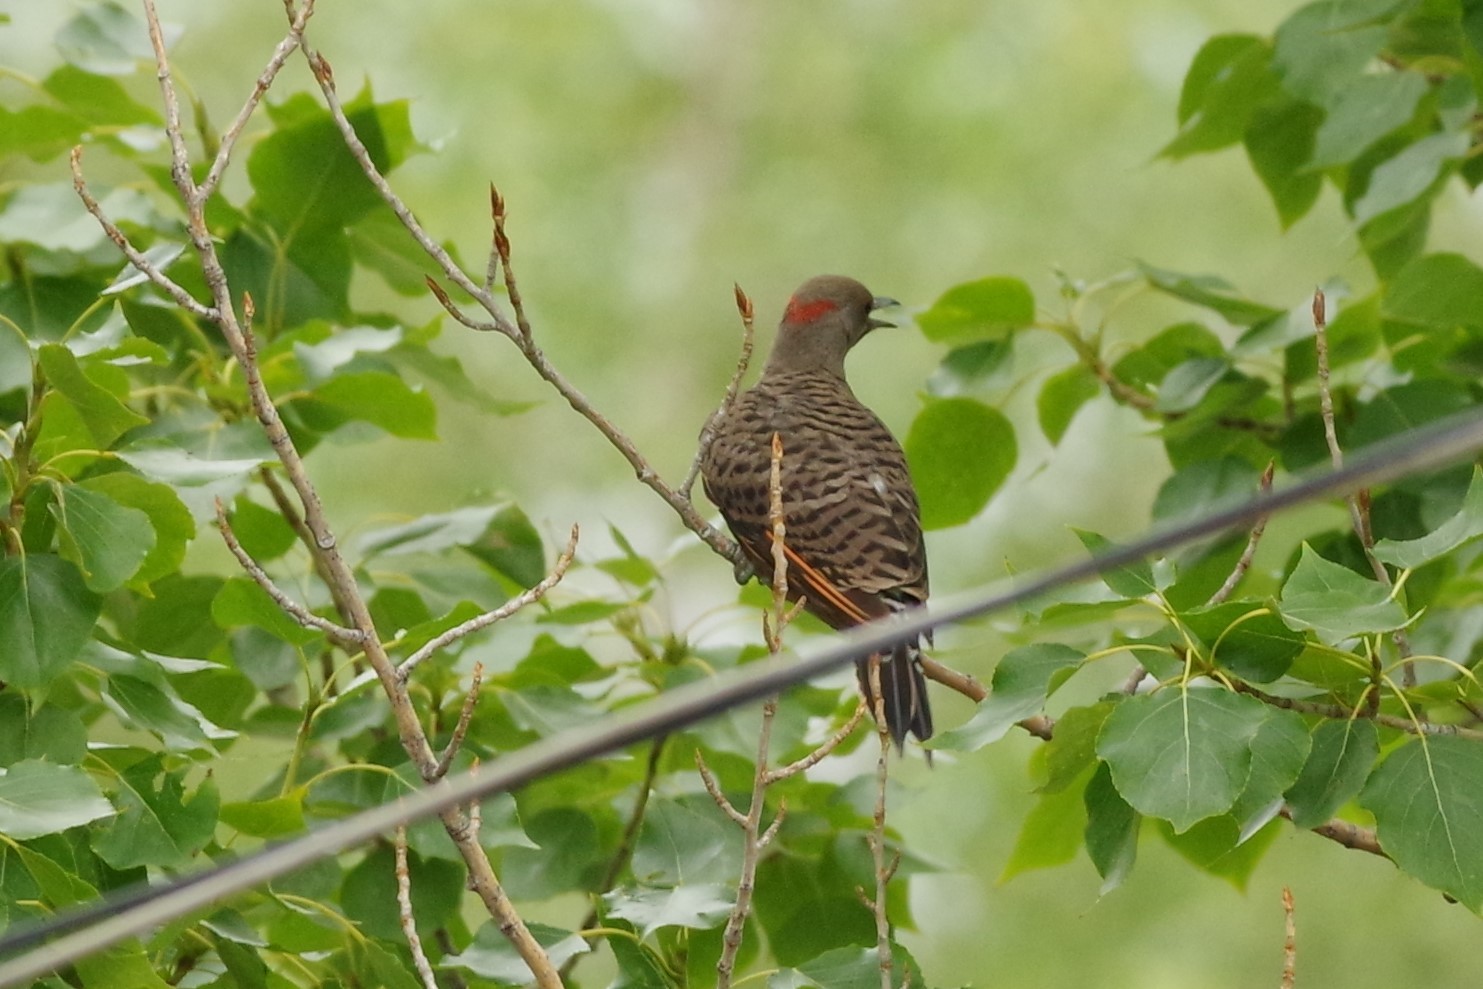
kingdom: Animalia
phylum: Chordata
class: Aves
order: Piciformes
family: Picidae
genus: Colaptes
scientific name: Colaptes auratus
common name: Northern flicker
